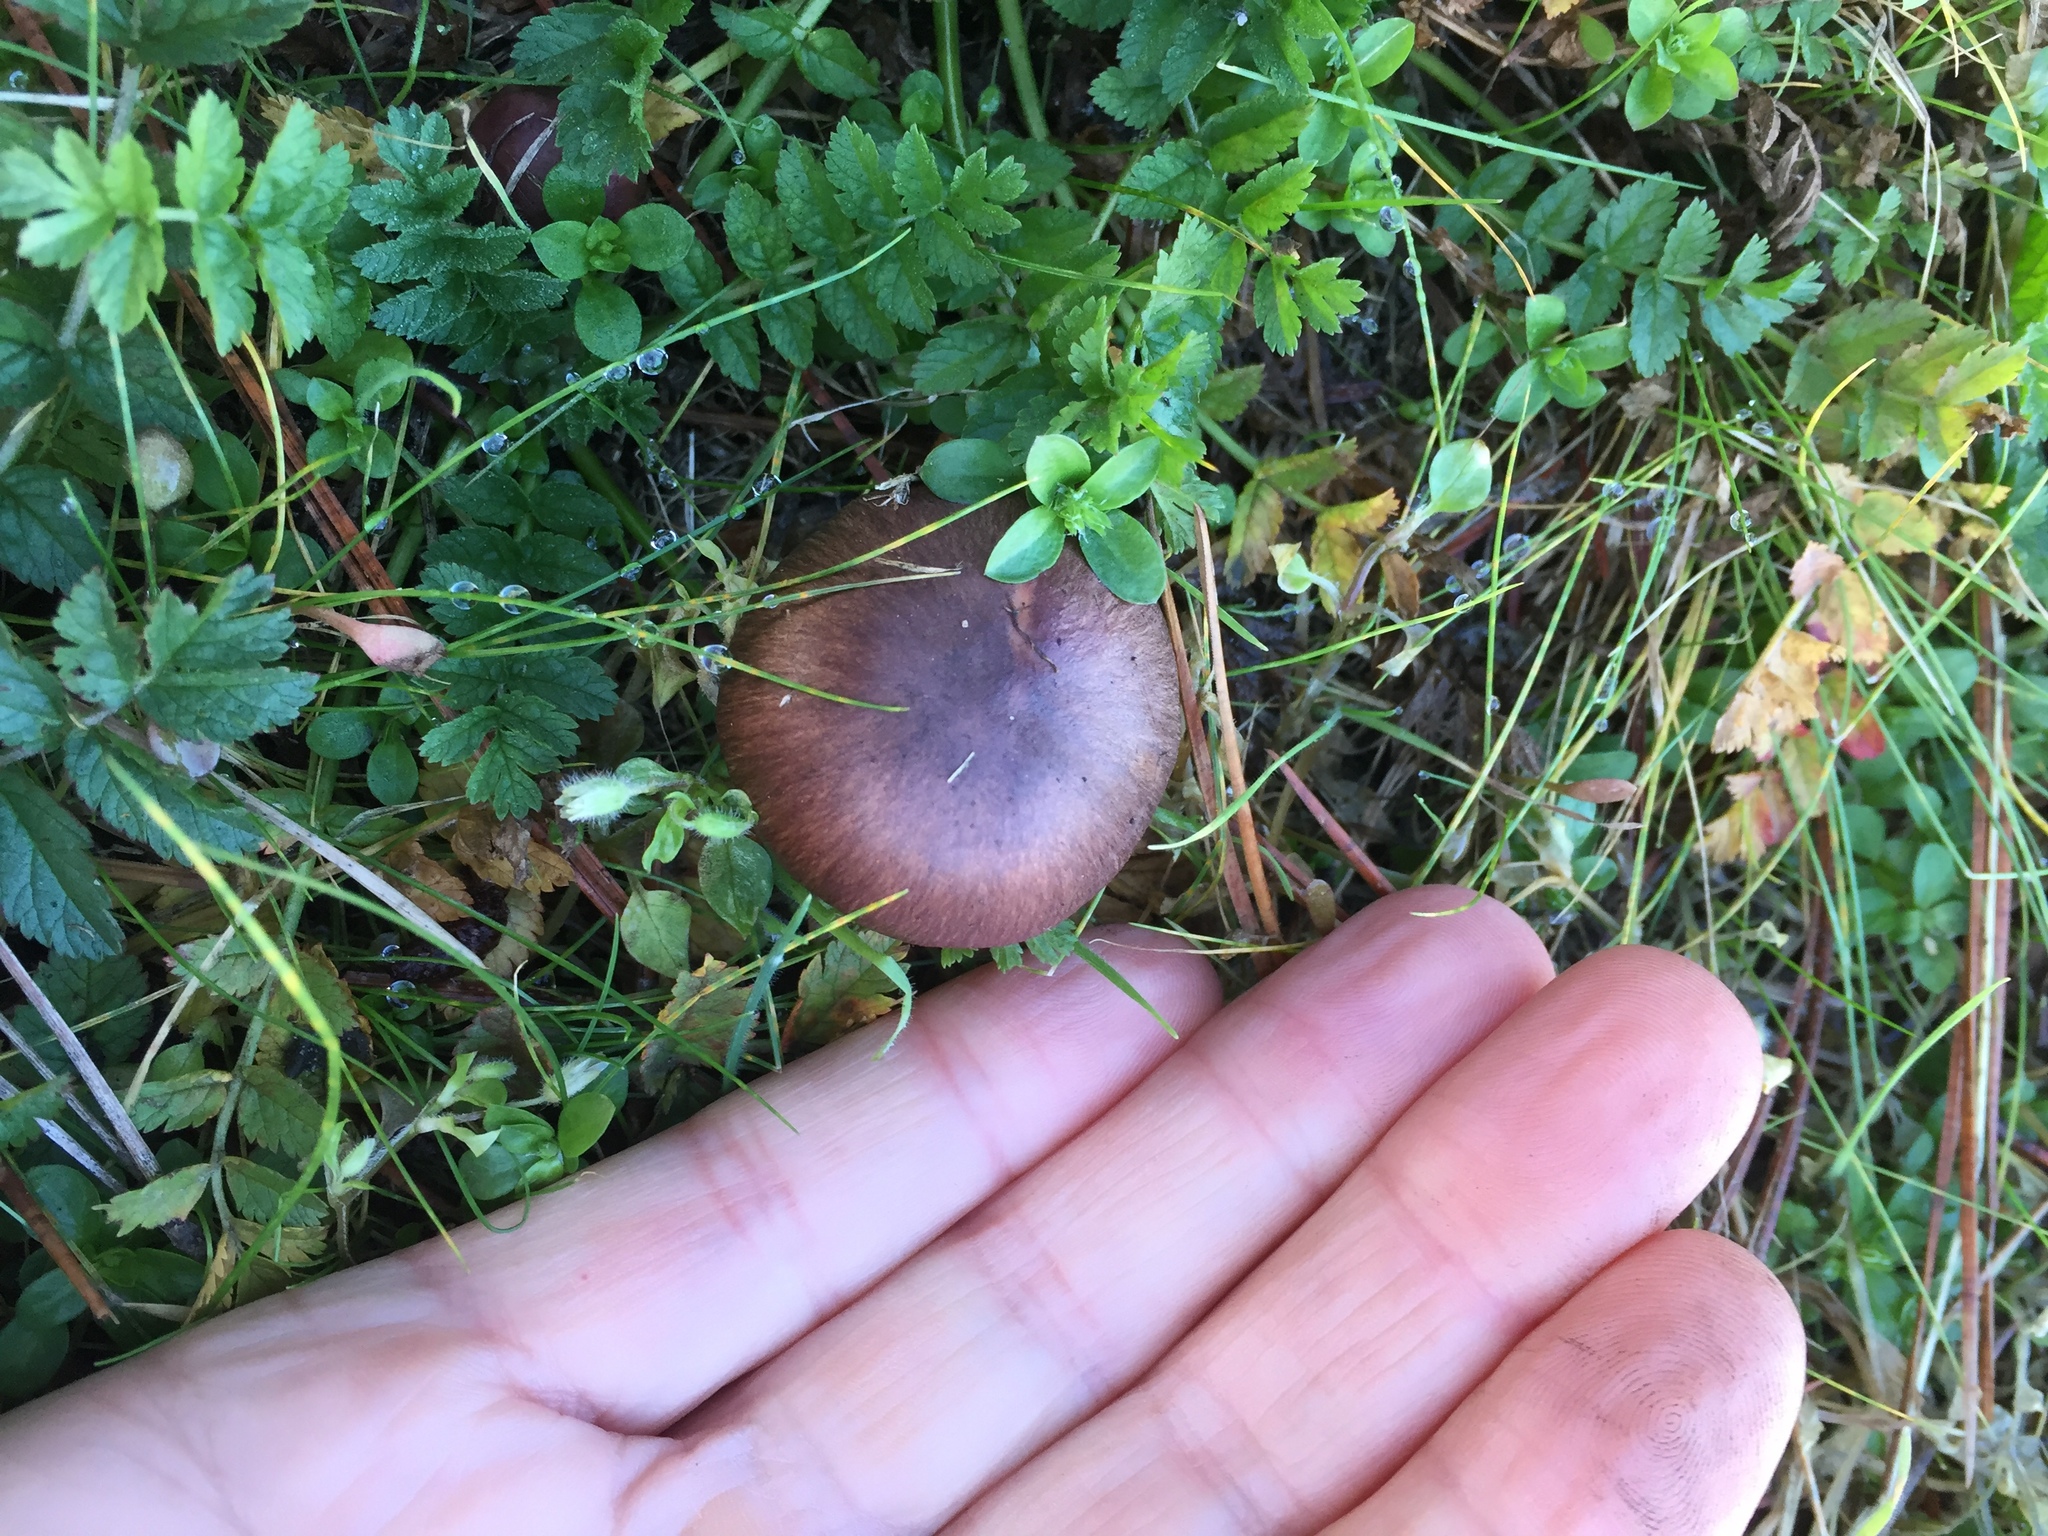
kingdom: Fungi
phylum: Basidiomycota
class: Agaricomycetes
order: Boletales
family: Gomphidiaceae
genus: Chroogomphus
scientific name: Chroogomphus vinicolor
